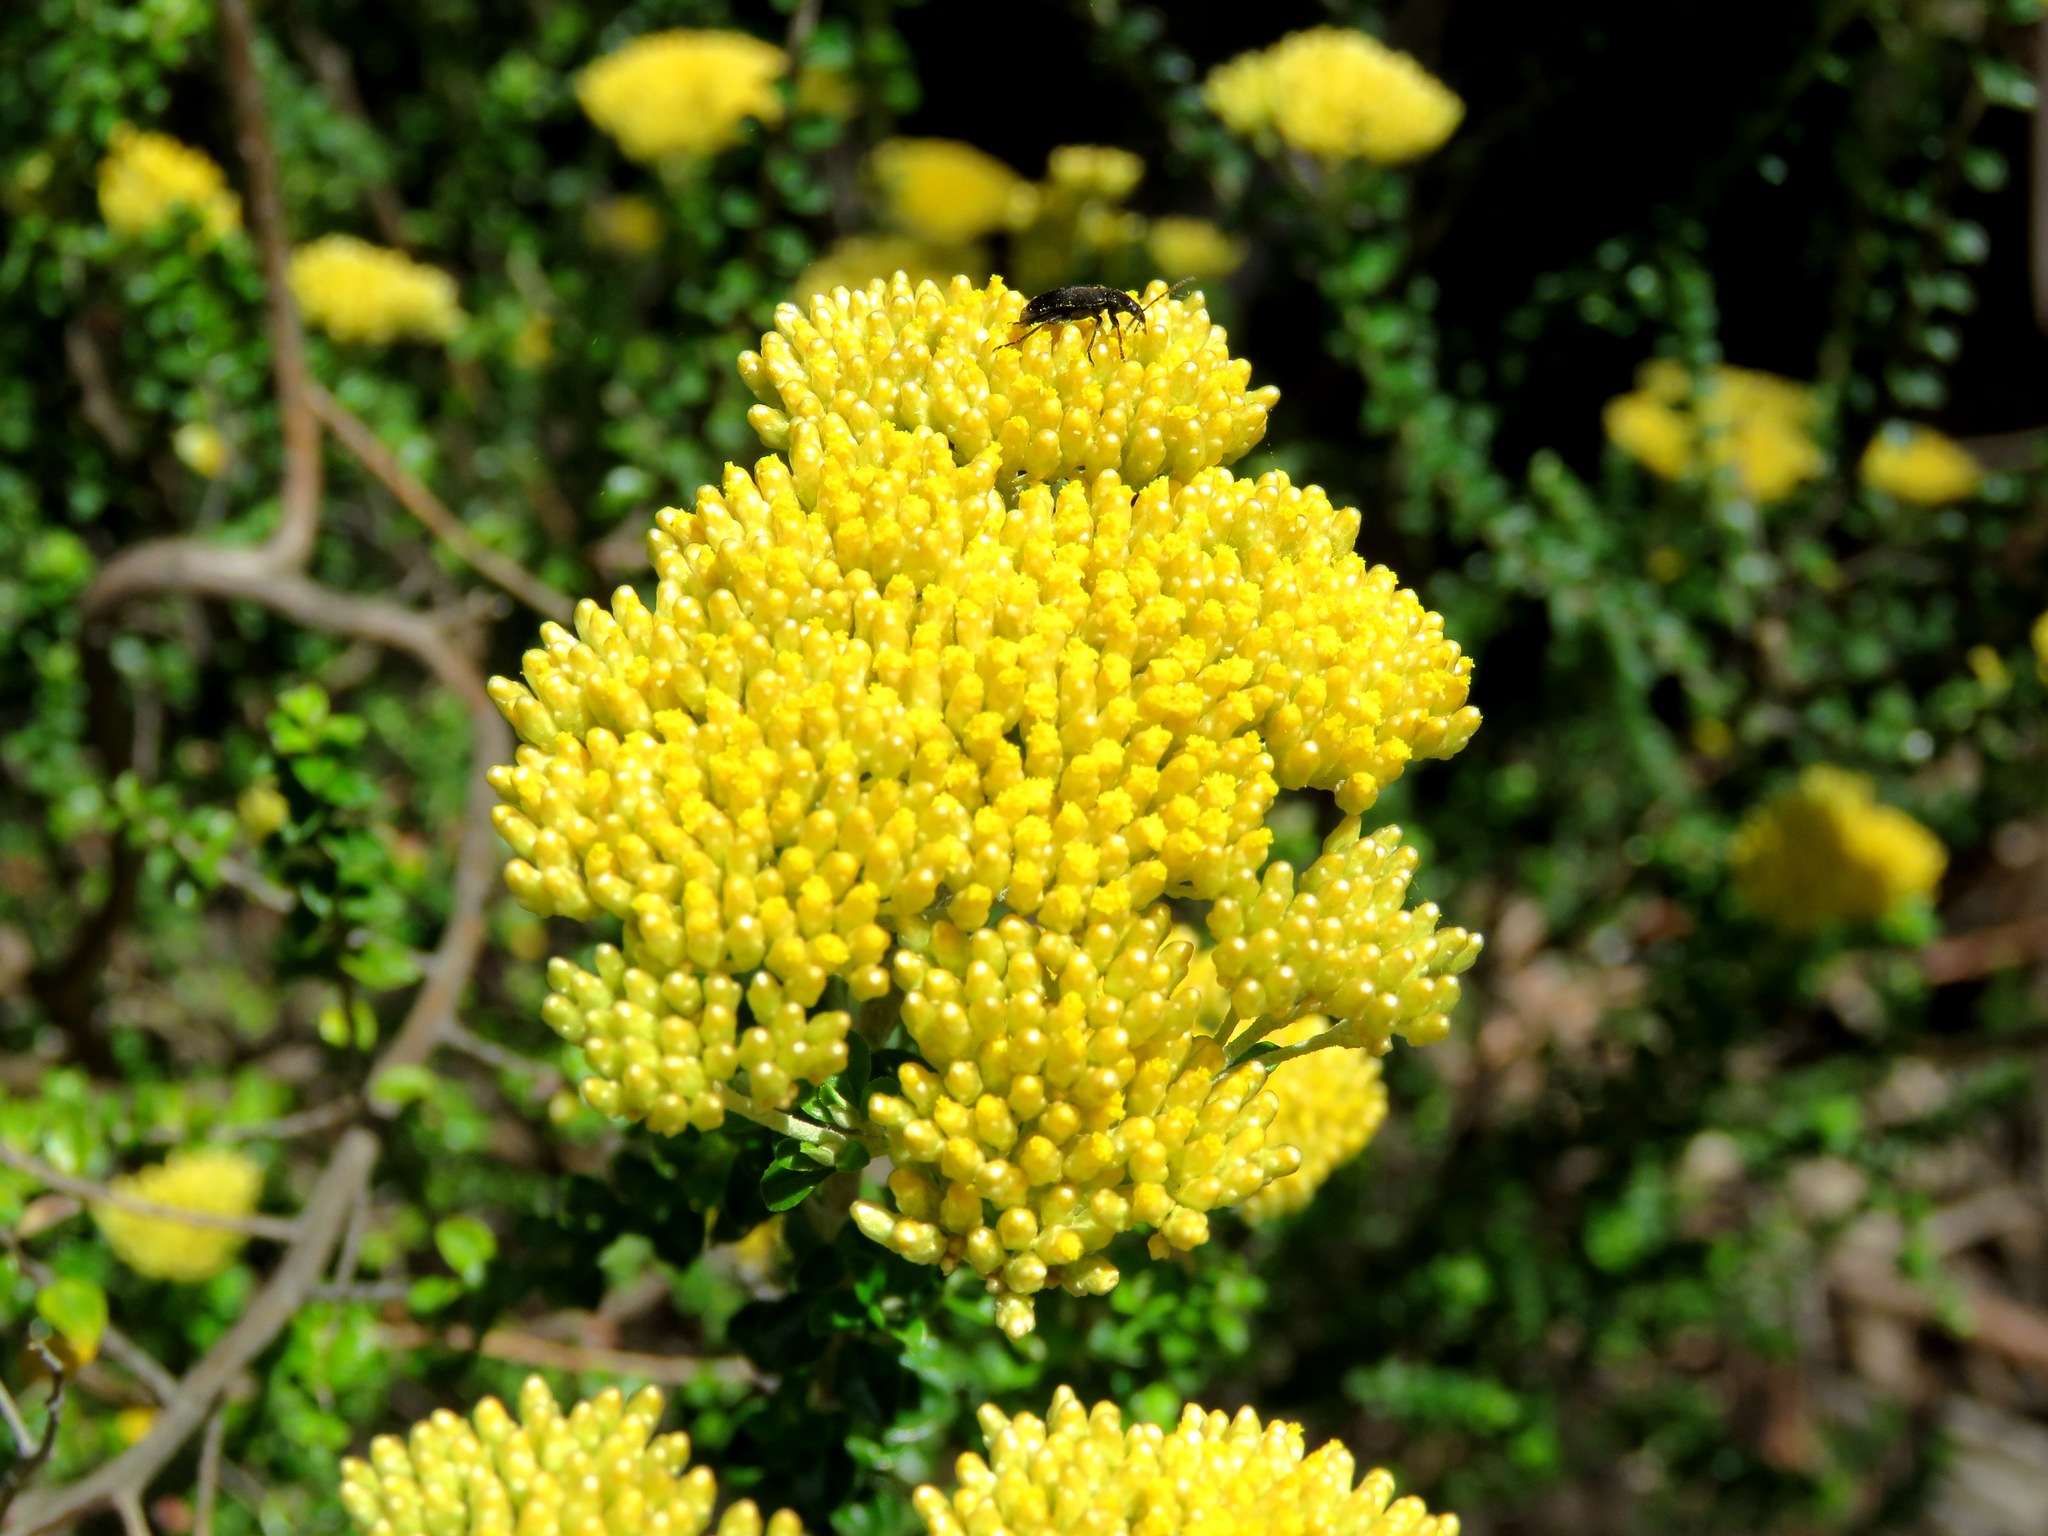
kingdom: Plantae
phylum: Tracheophyta
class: Magnoliopsida
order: Asterales
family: Asteraceae
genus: Ozothamnus
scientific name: Ozothamnus obcordatus
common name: Grey everlasting
